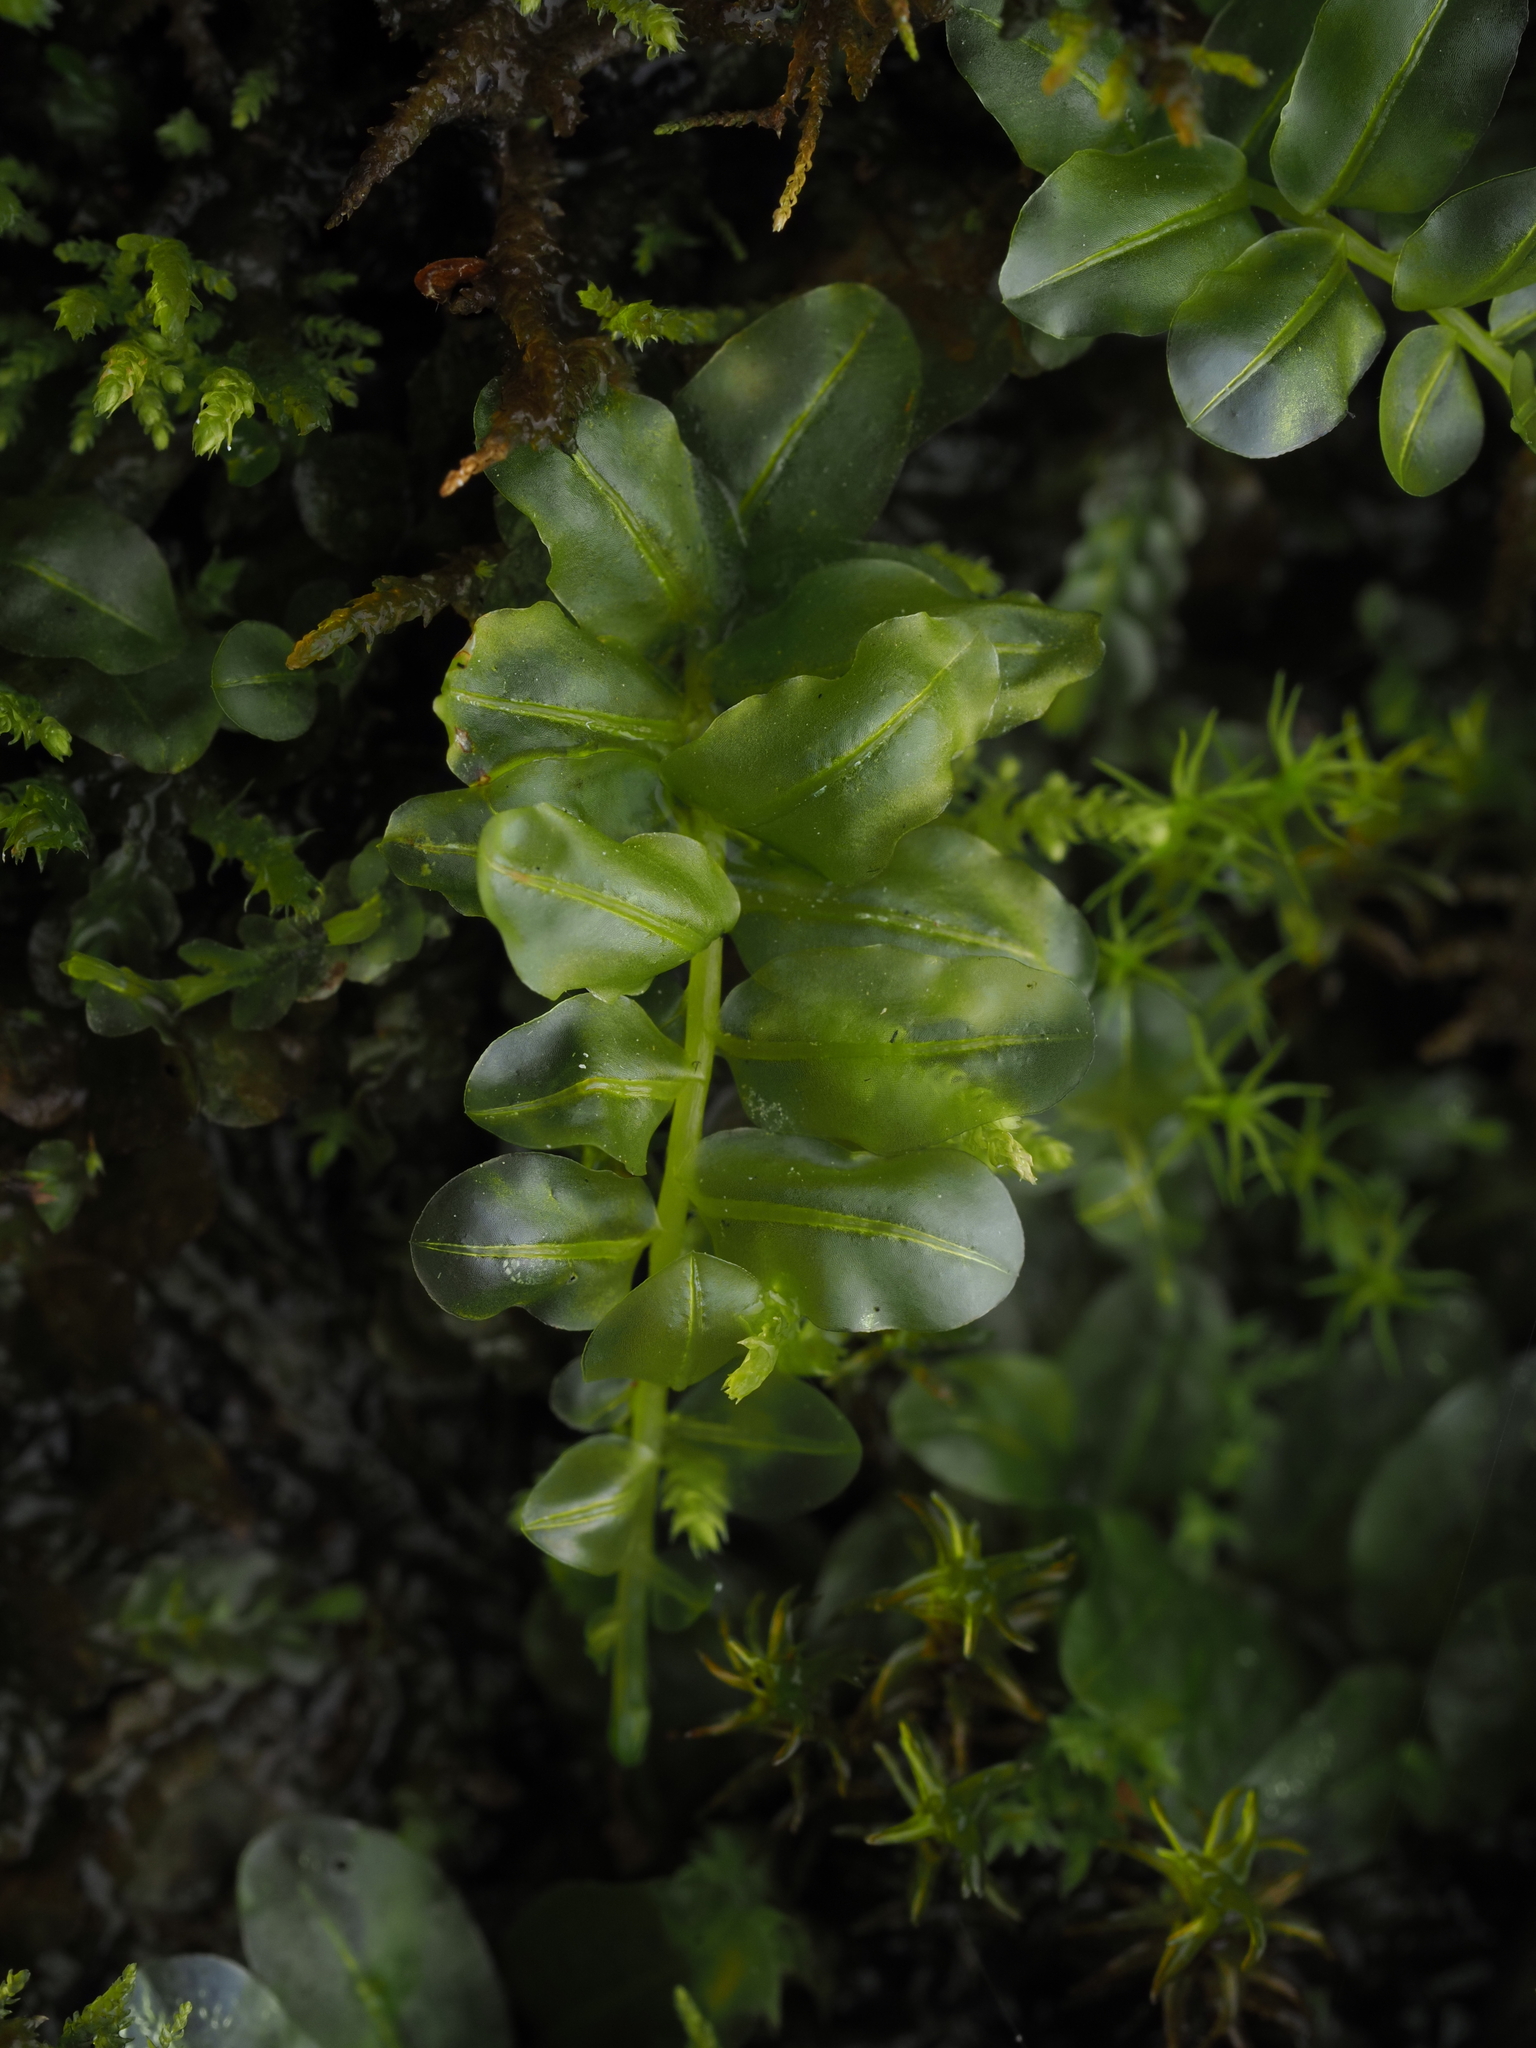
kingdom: Plantae
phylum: Bryophyta
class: Bryopsida
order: Bryales
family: Mniaceae
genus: Plagiomnium
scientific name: Plagiomnium novae-zealandiae
